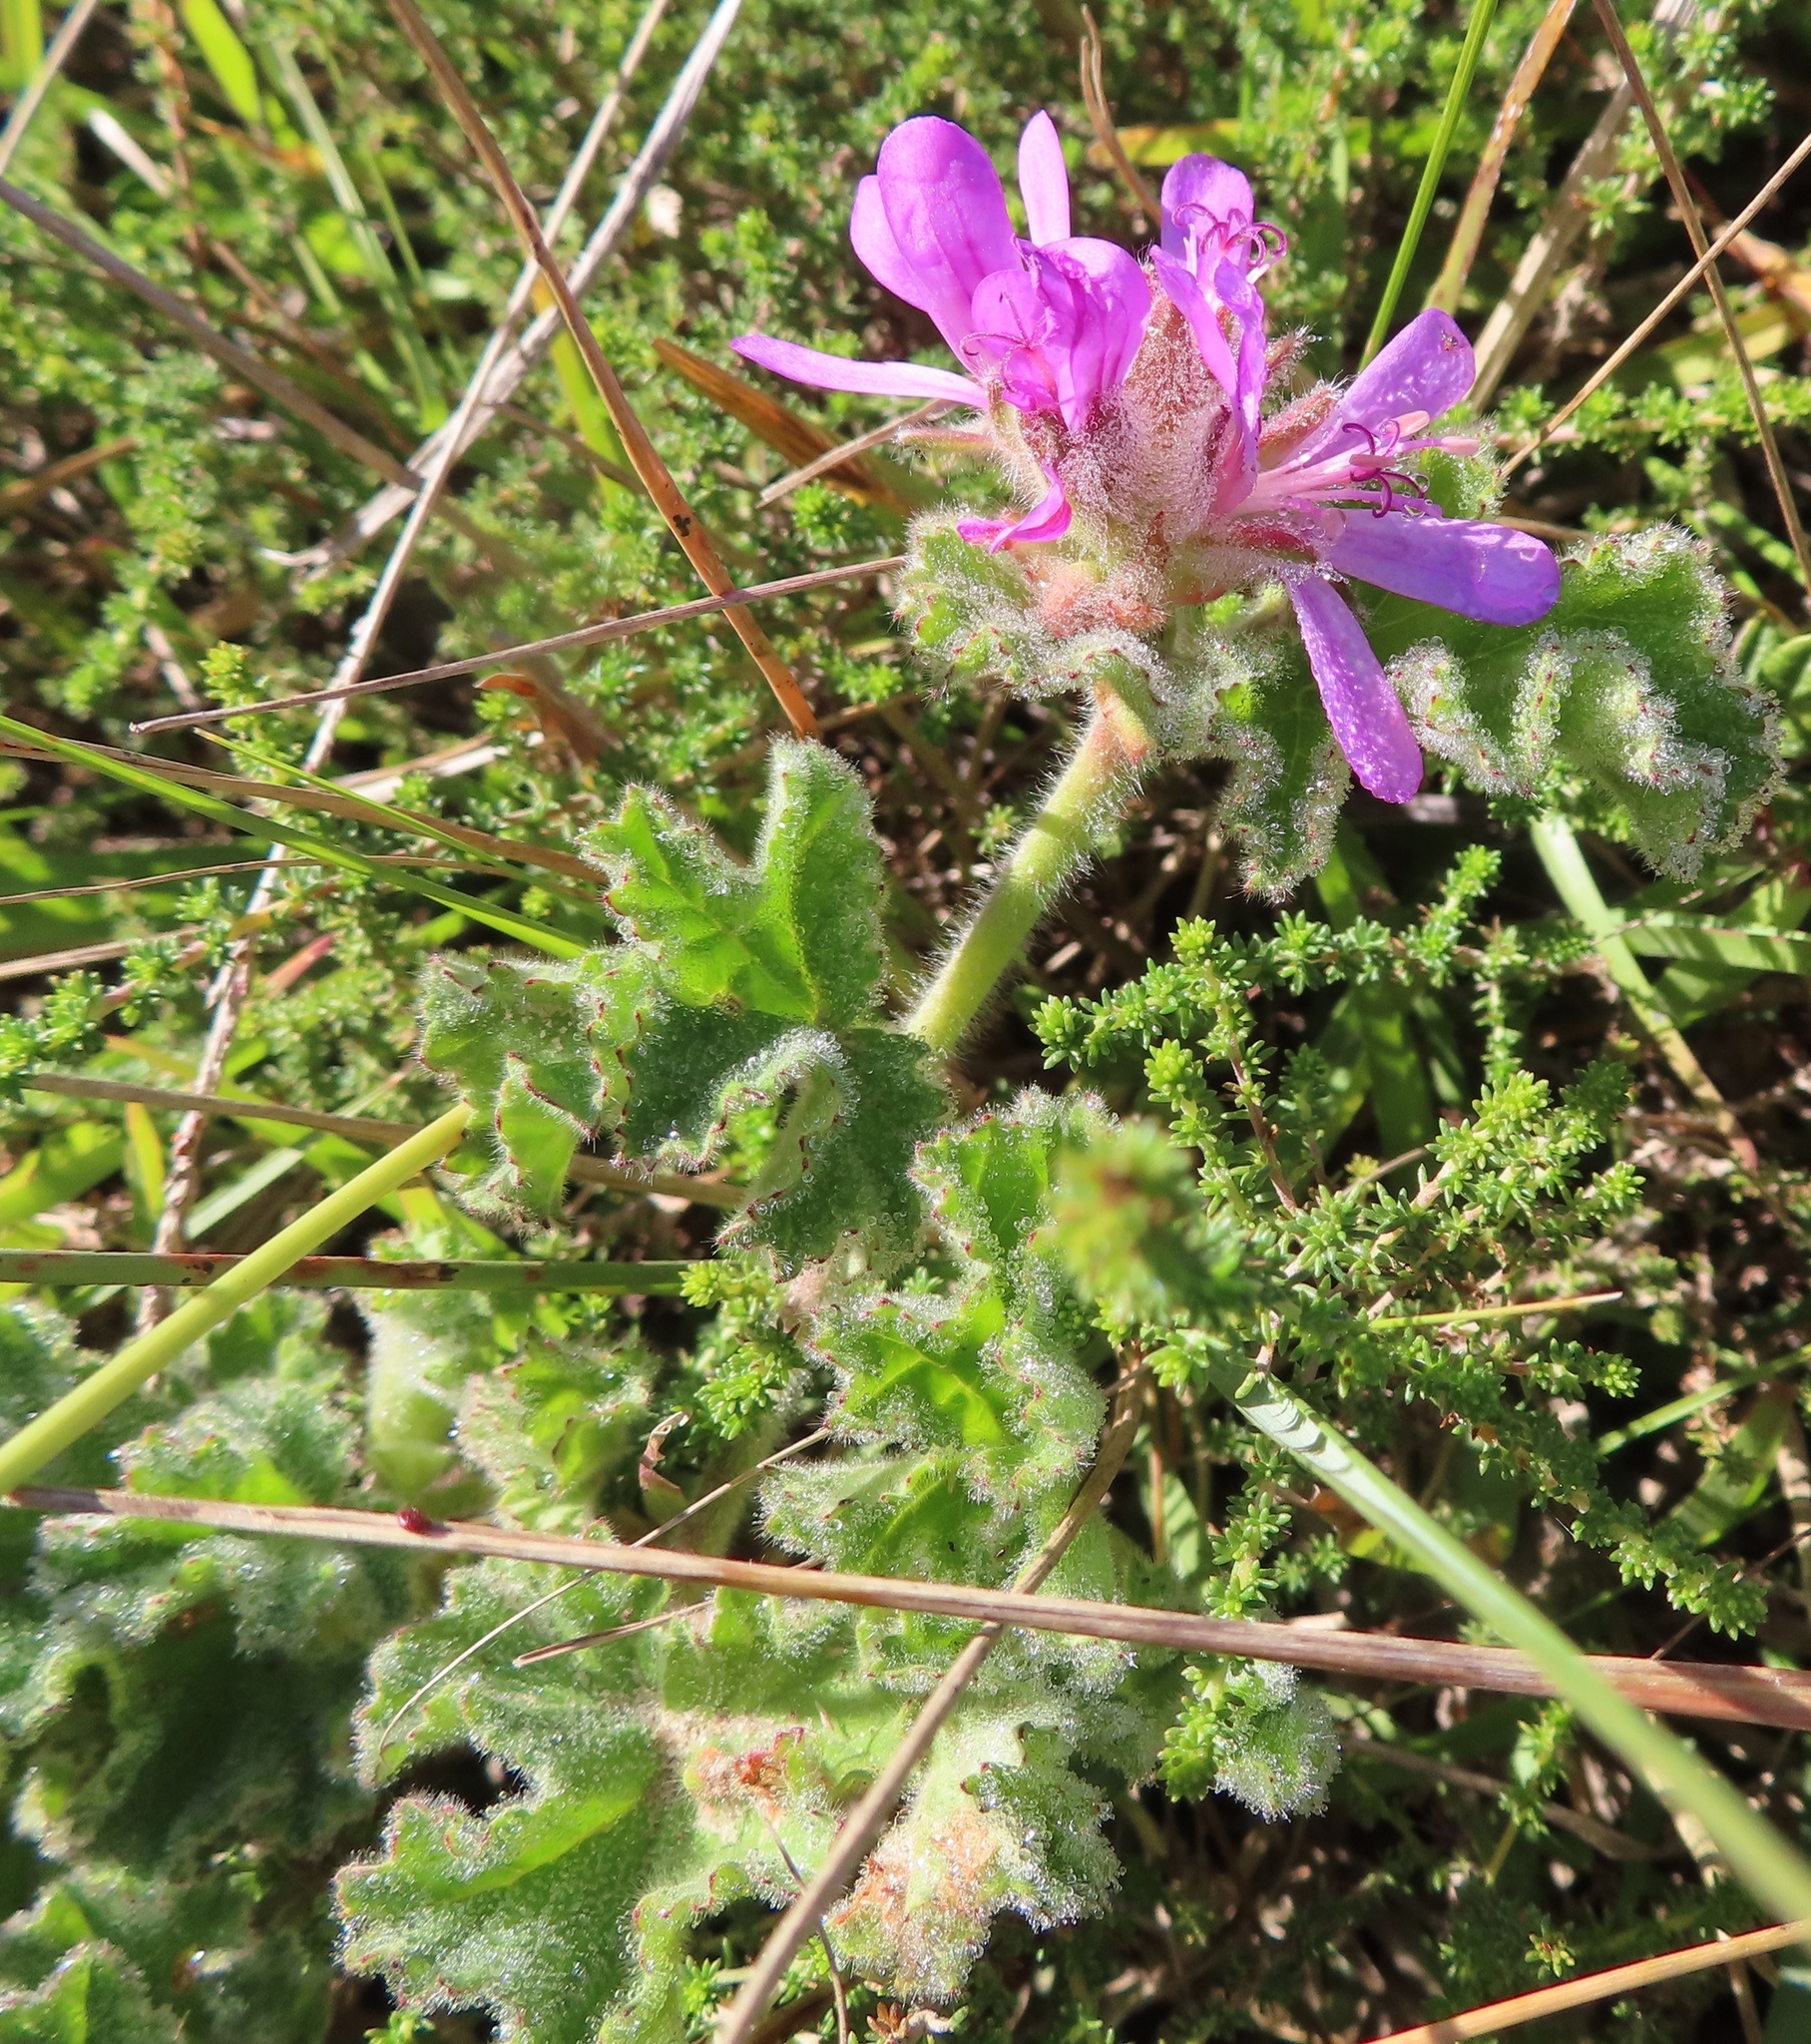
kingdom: Plantae
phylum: Tracheophyta
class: Magnoliopsida
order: Geraniales
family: Geraniaceae
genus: Pelargonium
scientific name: Pelargonium capitatum
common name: Rose scented geranium
